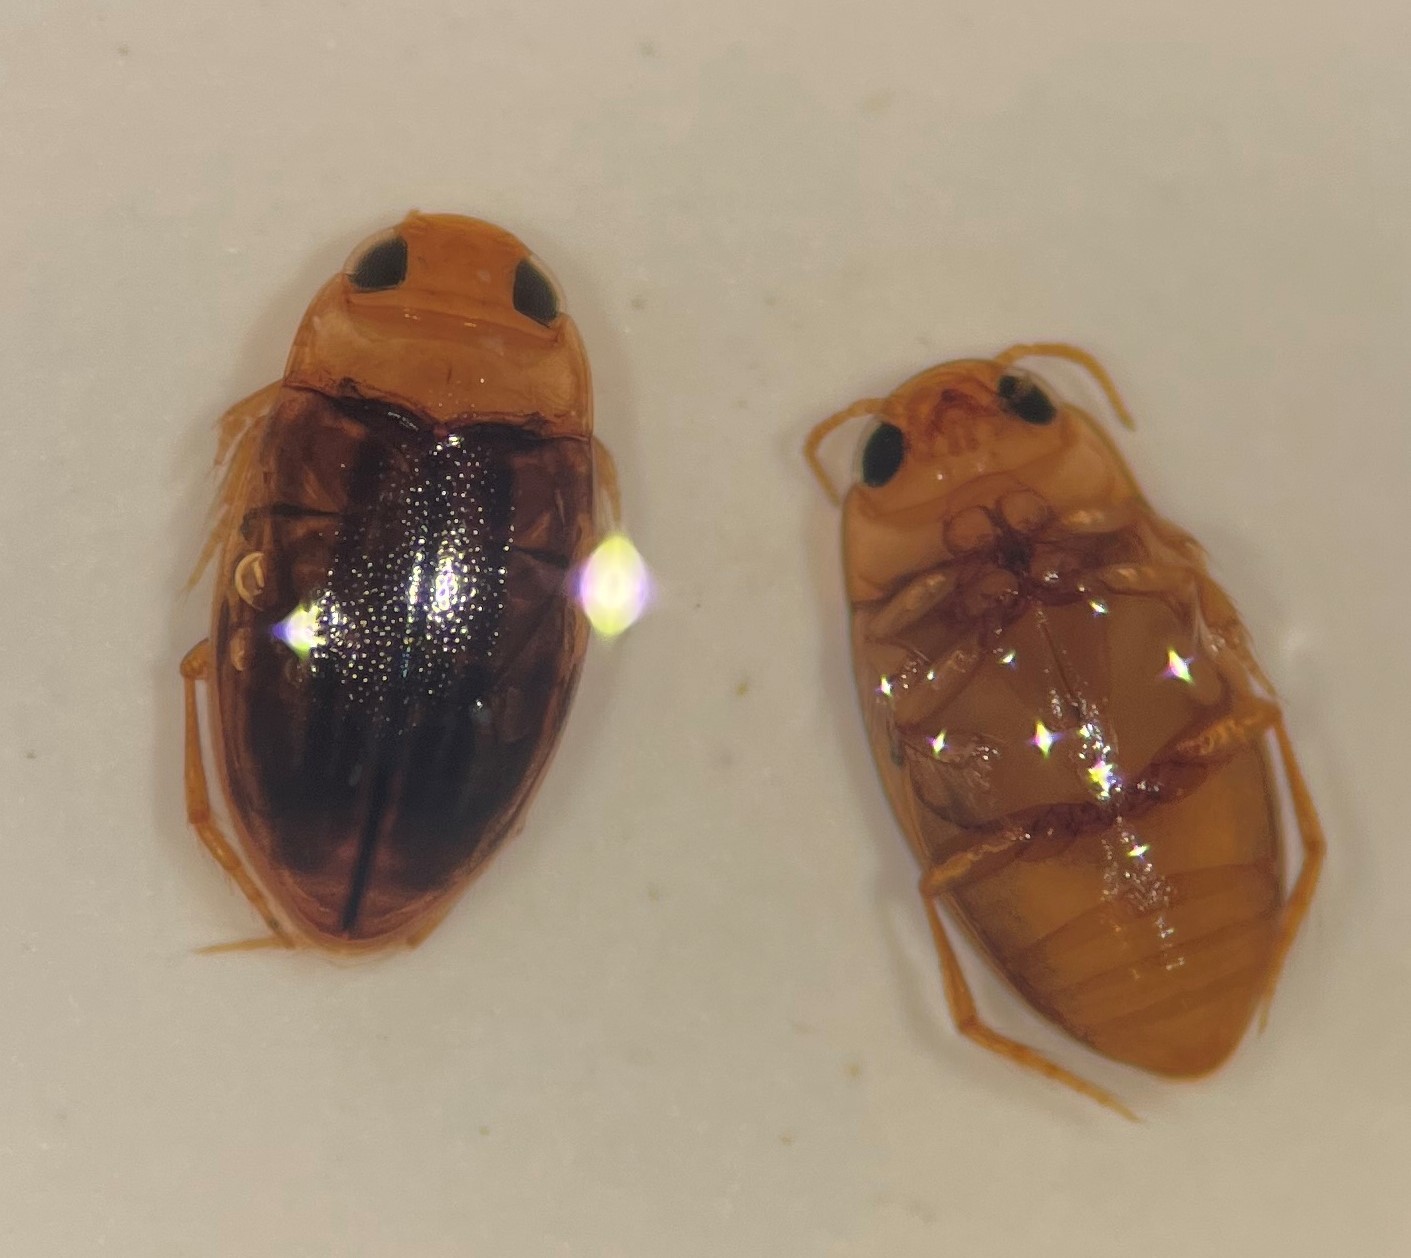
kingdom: Animalia
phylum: Arthropoda
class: Insecta
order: Coleoptera
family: Dytiscidae
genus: Neobidessus
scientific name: Neobidessus pullus
